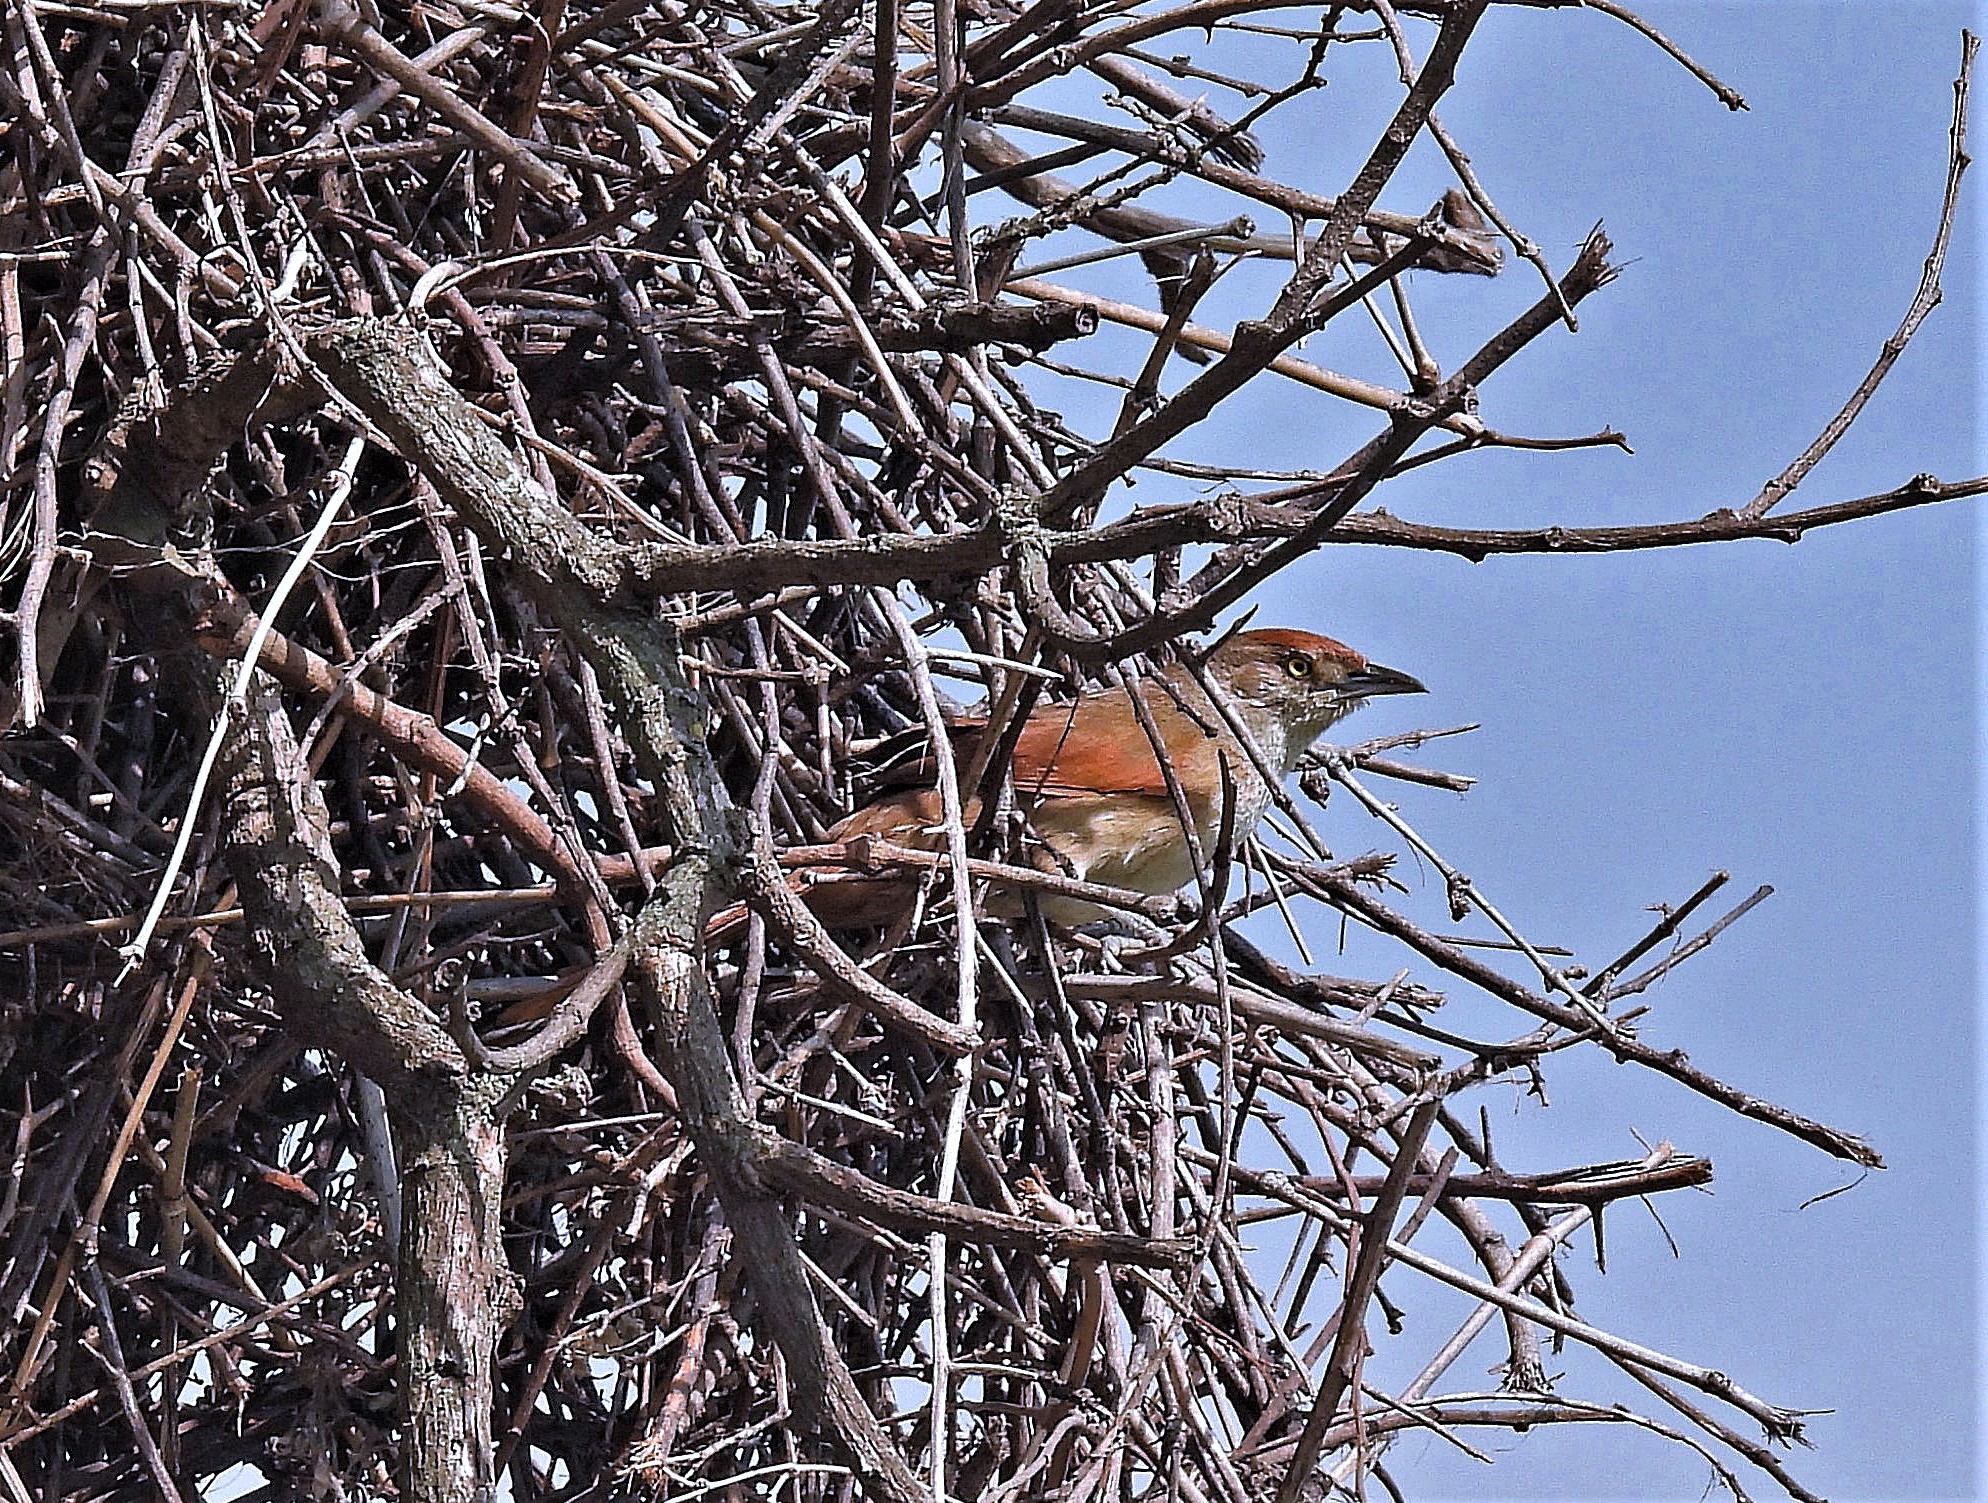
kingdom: Animalia
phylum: Chordata
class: Aves
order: Passeriformes
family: Furnariidae
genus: Phacellodomus
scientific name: Phacellodomus ruber
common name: Greater thornbird
